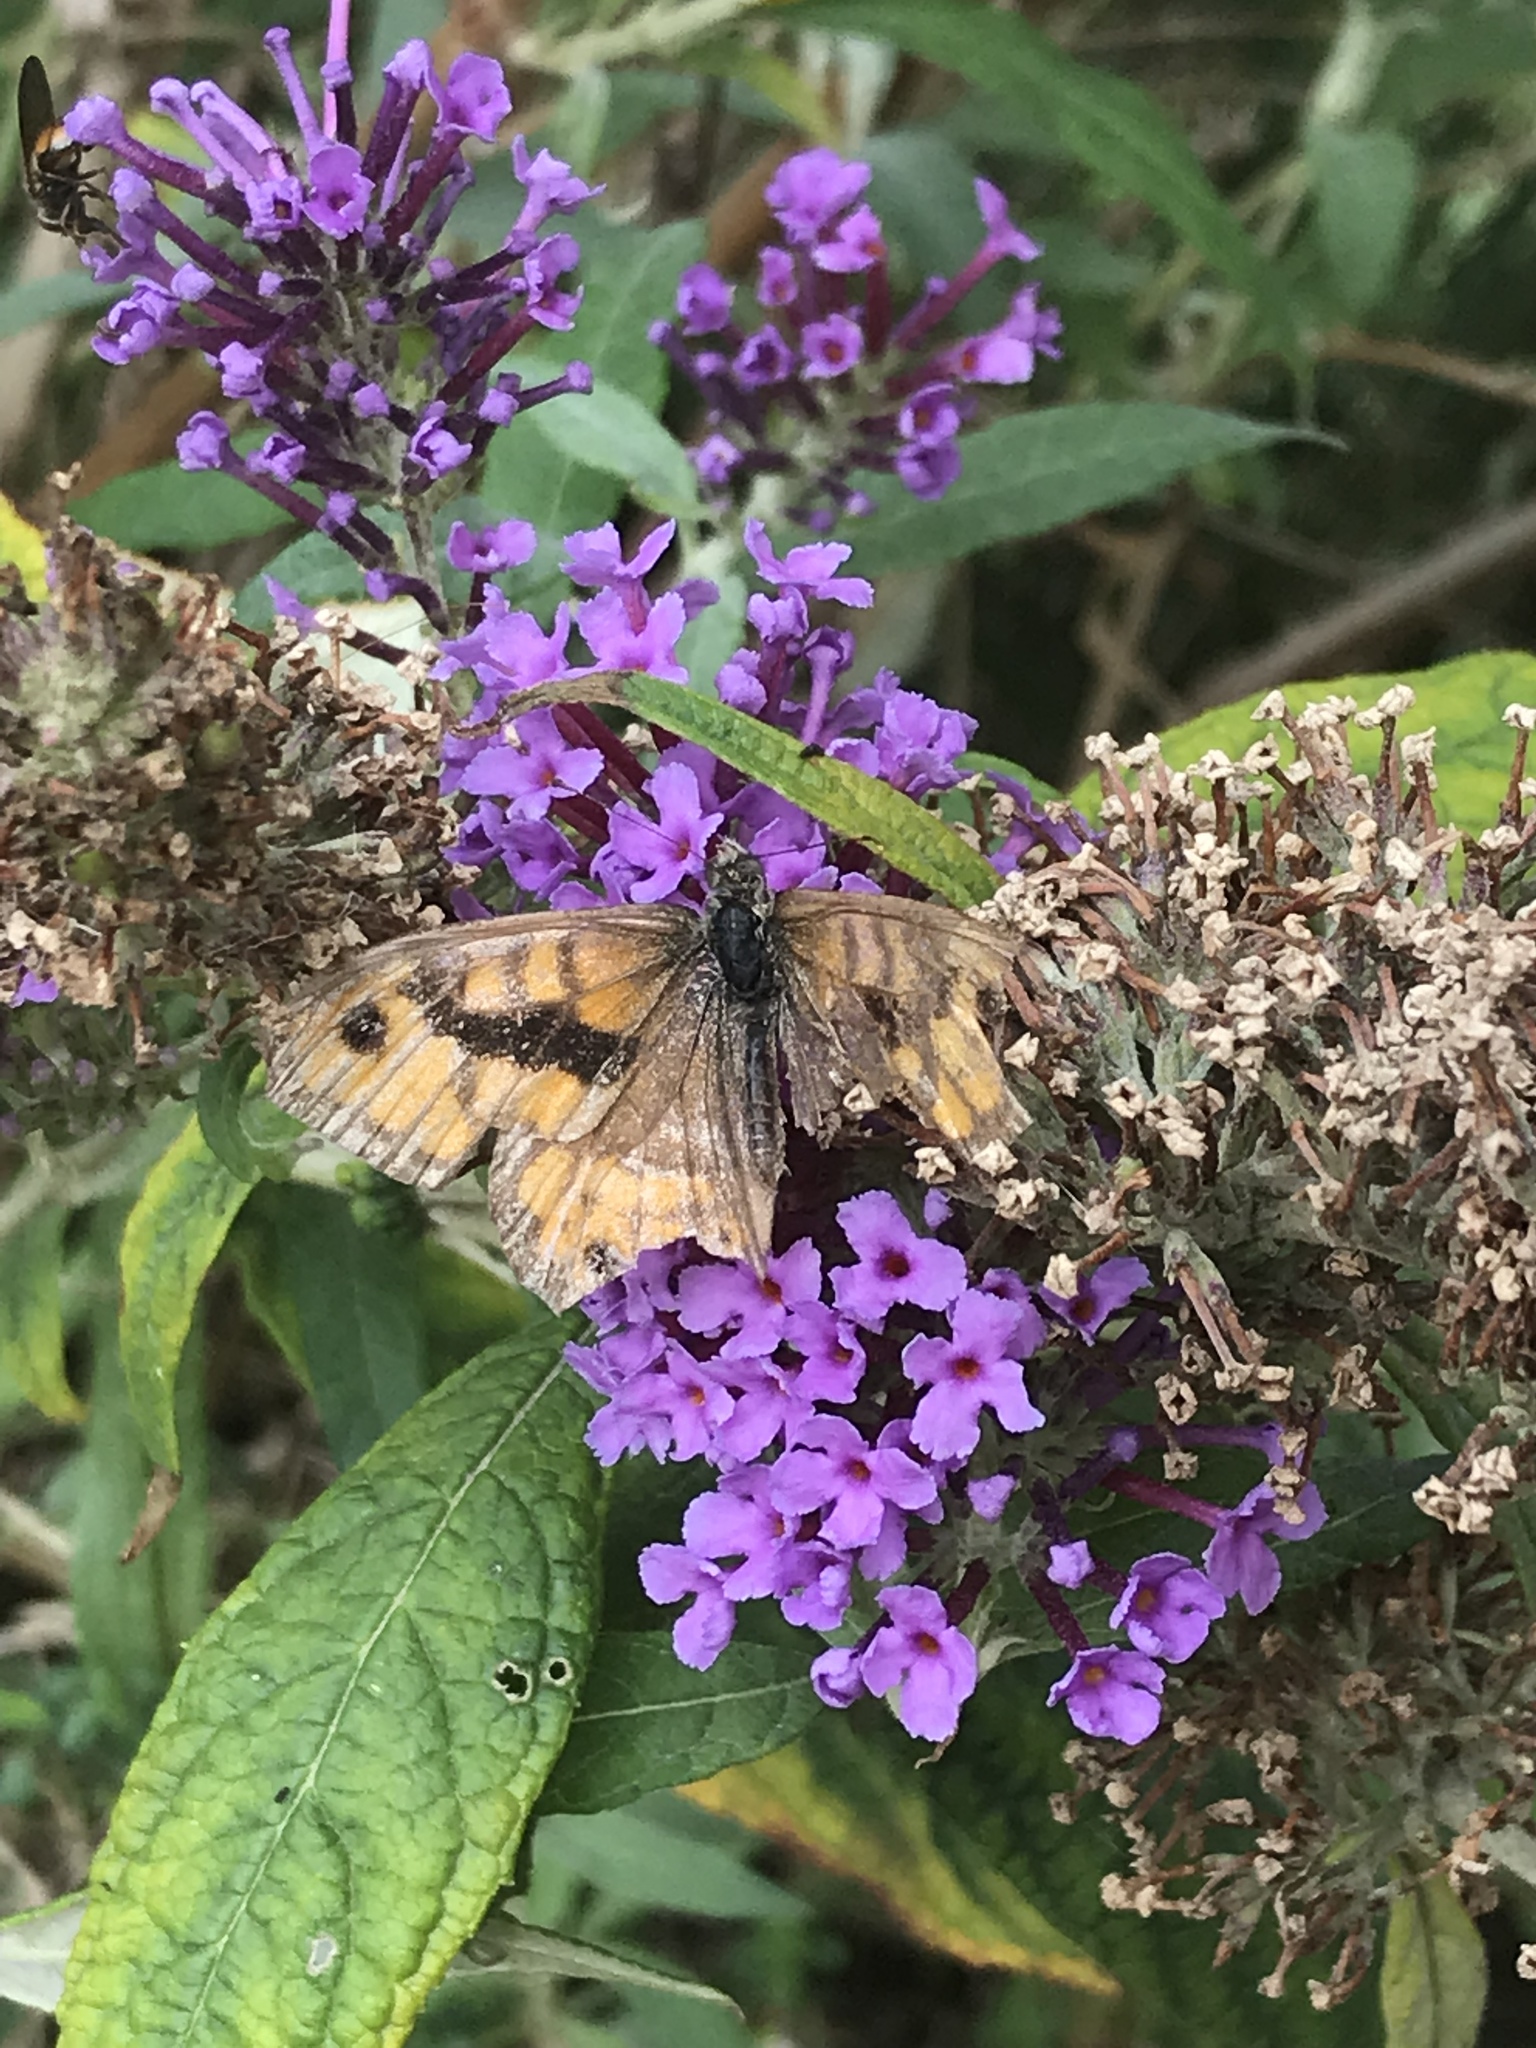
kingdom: Animalia
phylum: Arthropoda
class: Insecta
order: Lepidoptera
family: Nymphalidae
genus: Pararge
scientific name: Pararge Lasiommata megera
